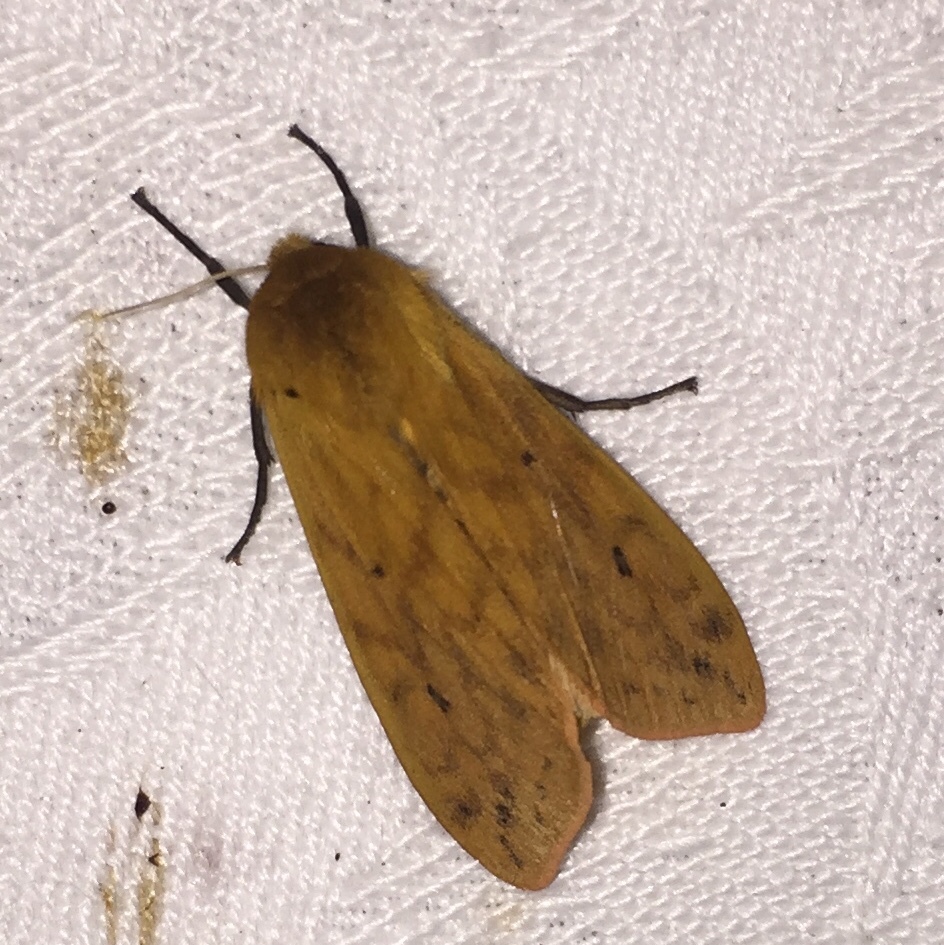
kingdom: Animalia
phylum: Arthropoda
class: Insecta
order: Lepidoptera
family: Erebidae
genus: Pyrrharctia
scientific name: Pyrrharctia isabella
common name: Isabella tiger moth
